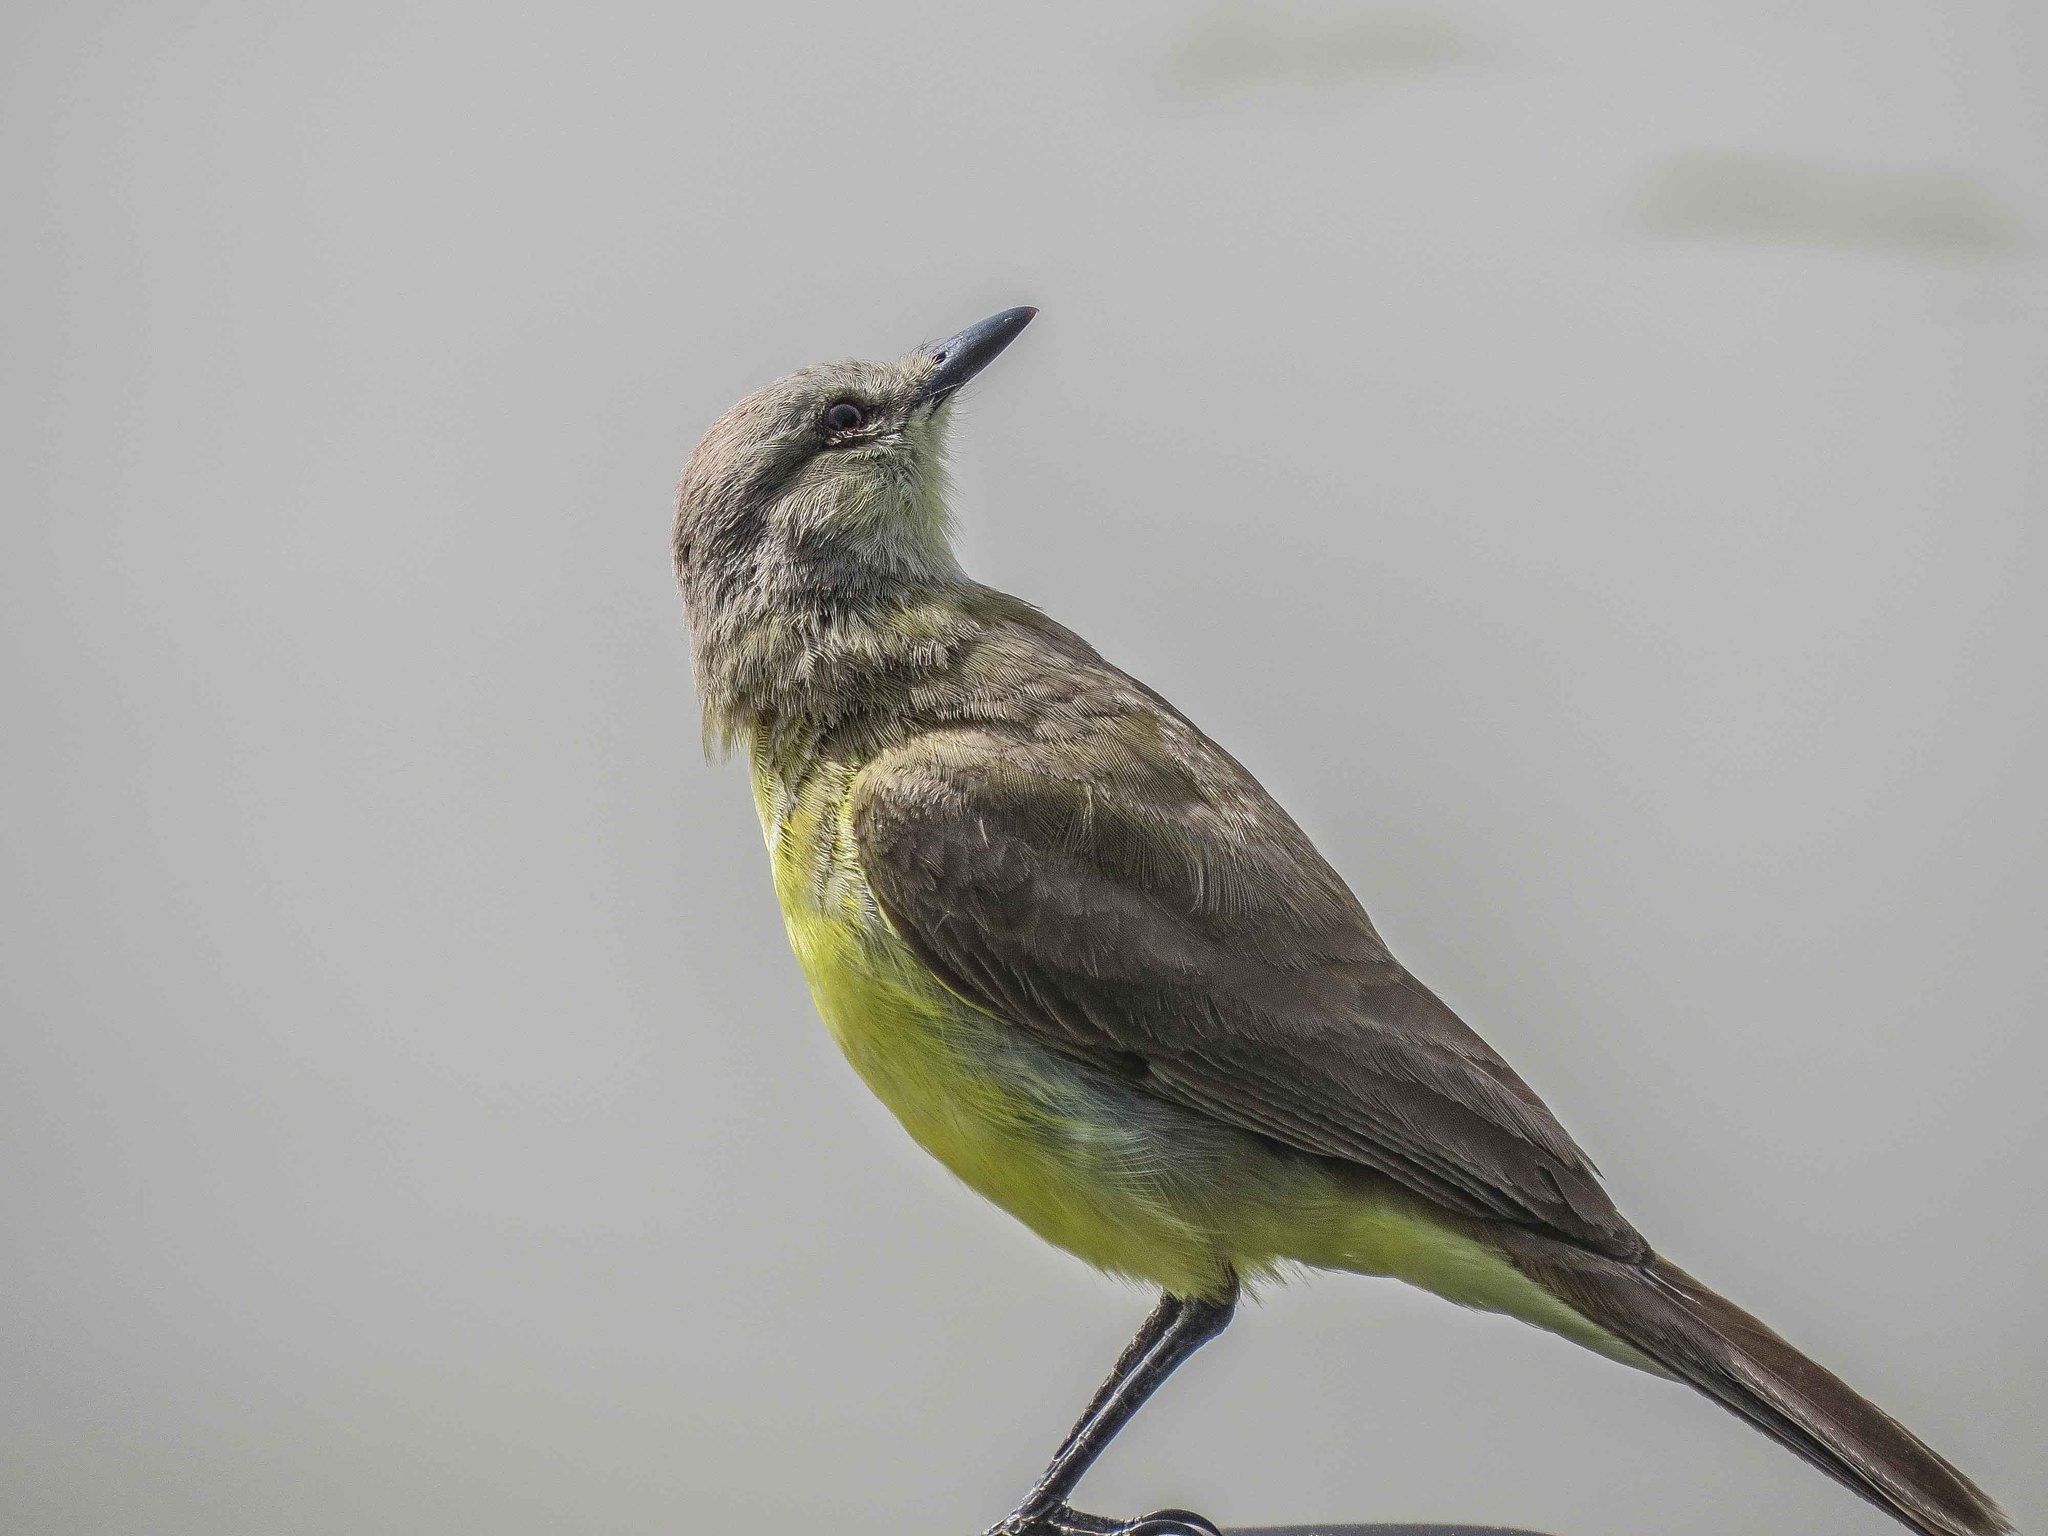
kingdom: Animalia
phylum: Chordata
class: Aves
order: Passeriformes
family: Tyrannidae
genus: Machetornis
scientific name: Machetornis rixosa
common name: Cattle tyrant
